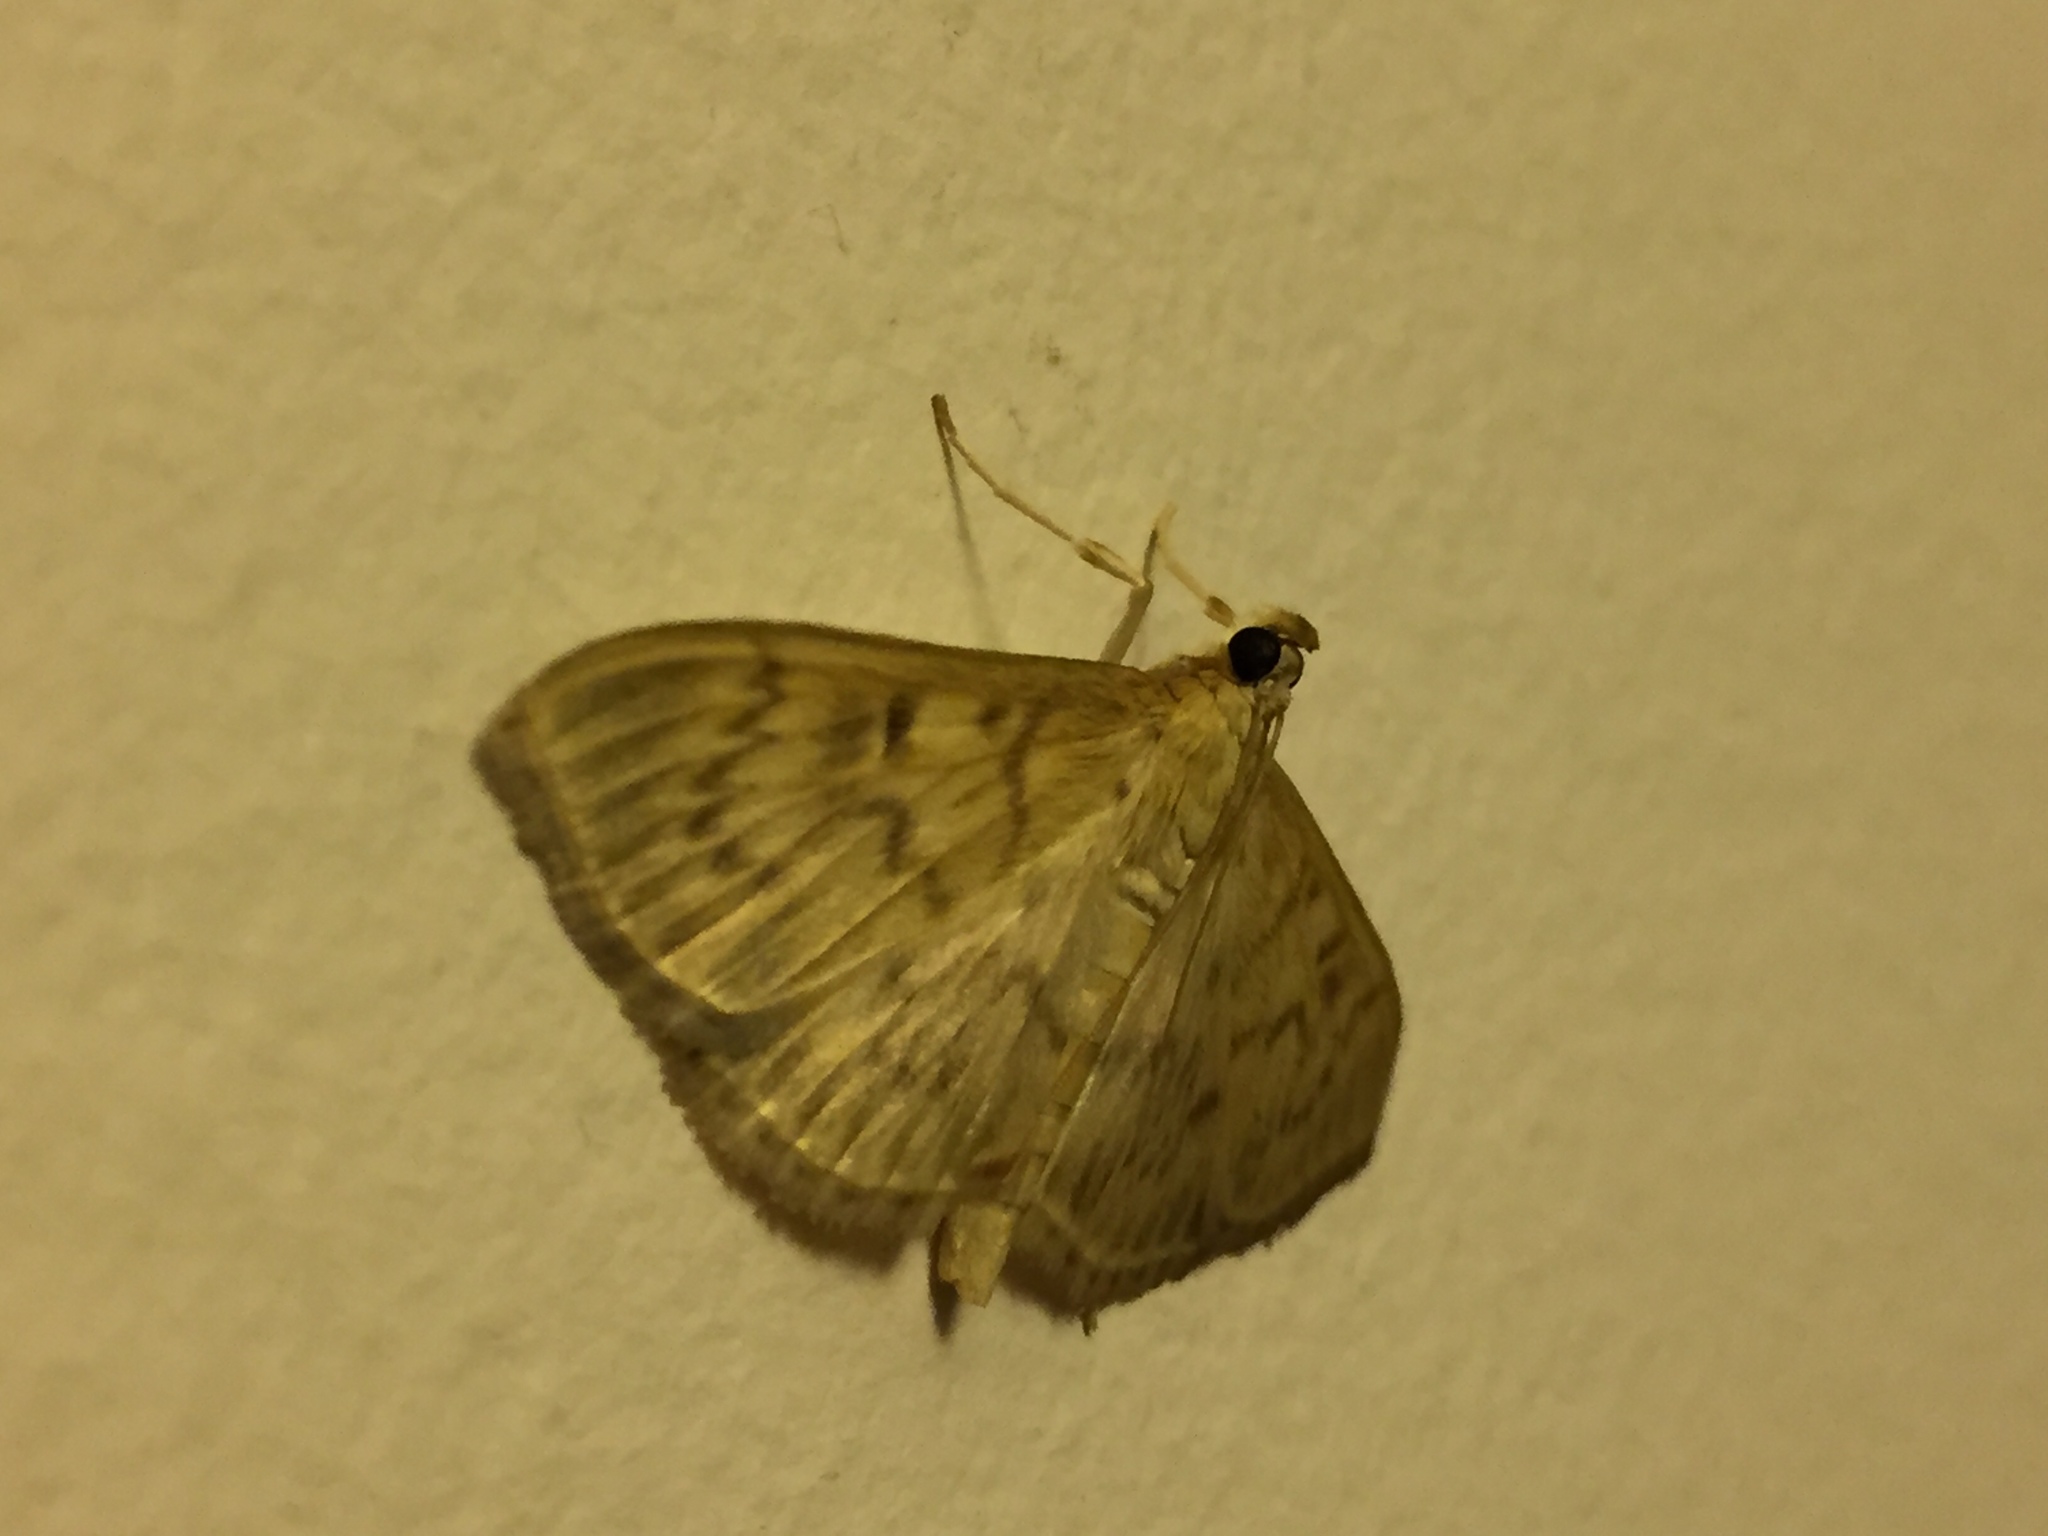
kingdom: Animalia
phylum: Arthropoda
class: Insecta
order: Lepidoptera
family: Crambidae
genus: Patania
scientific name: Patania ruralis
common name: Mother of pearl
